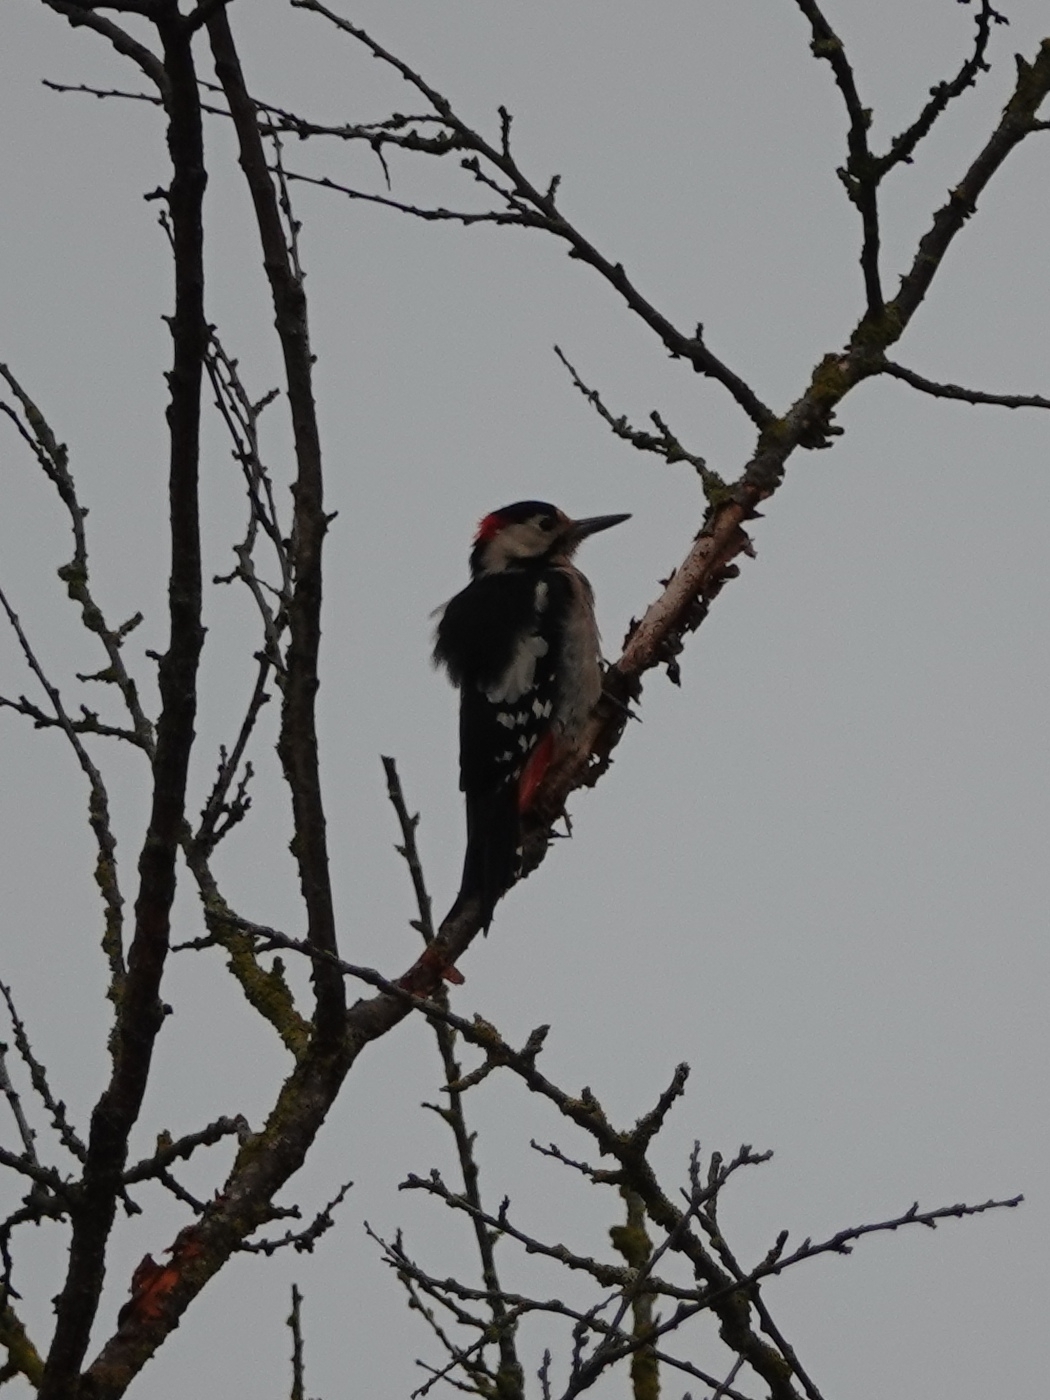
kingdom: Animalia
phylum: Chordata
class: Aves
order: Piciformes
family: Picidae
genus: Dendrocopos
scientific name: Dendrocopos syriacus
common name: Syrian woodpecker
